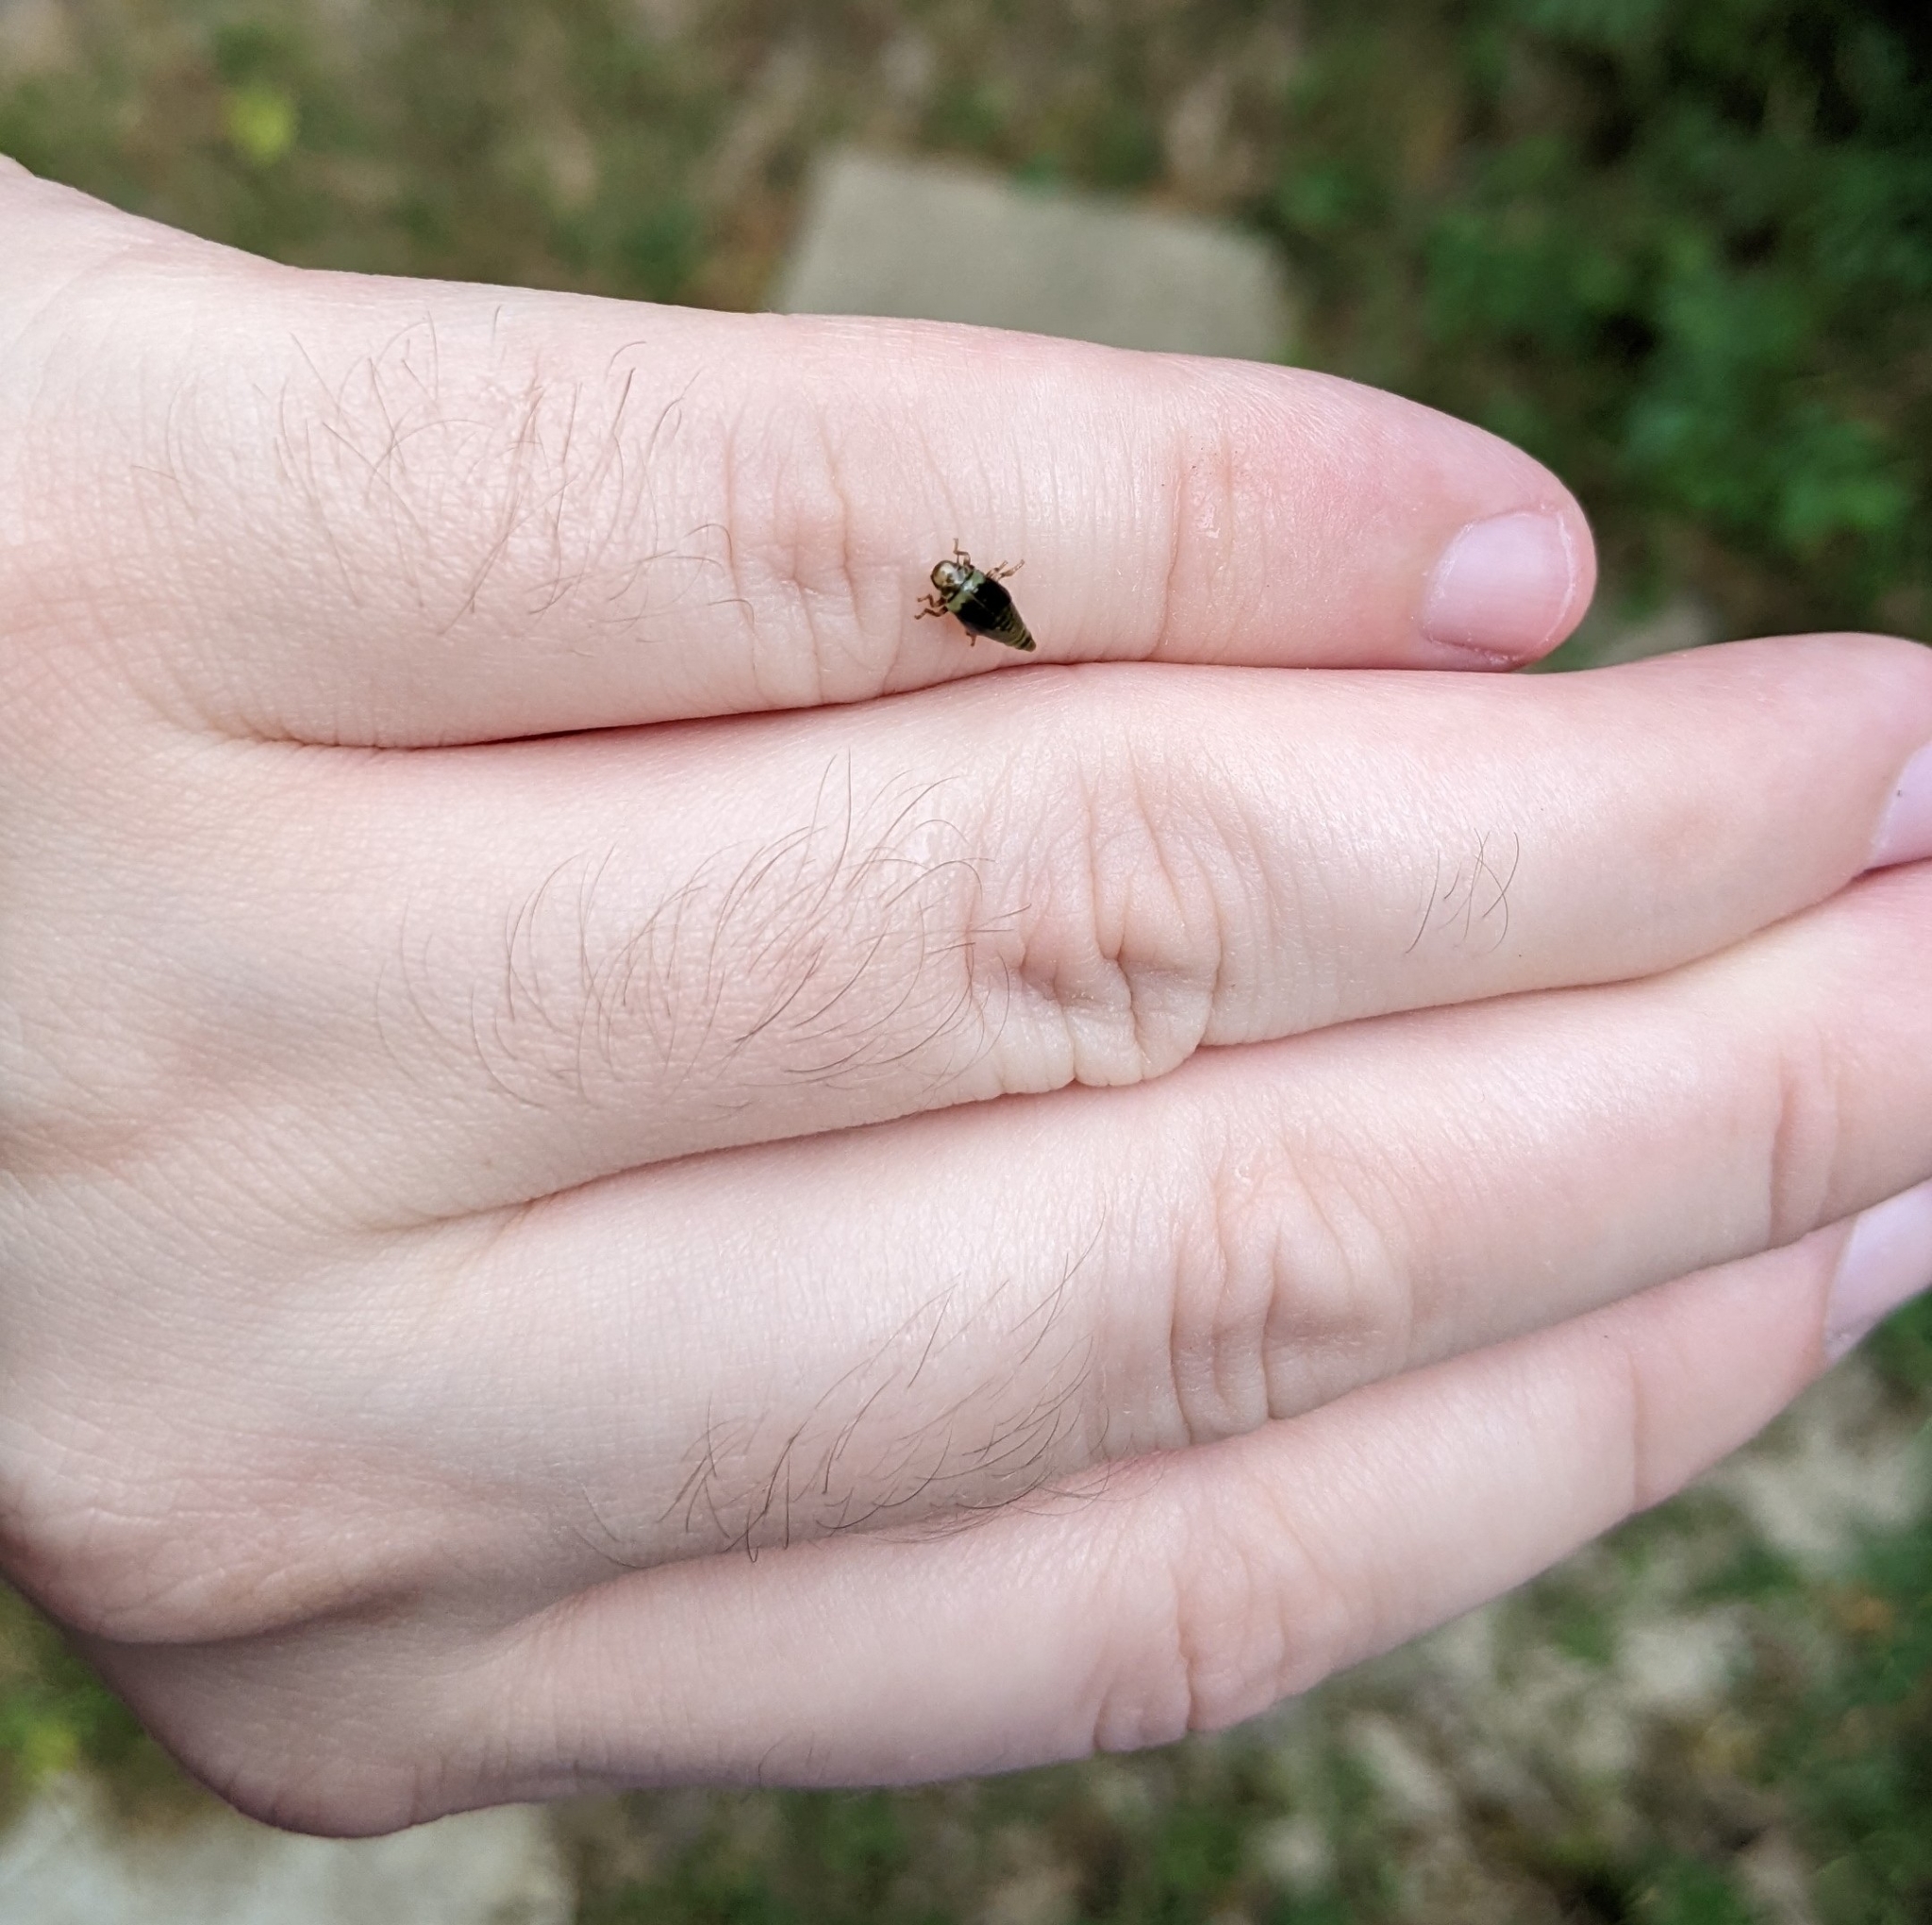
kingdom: Animalia
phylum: Arthropoda
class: Insecta
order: Hemiptera
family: Aphrophoridae
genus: Lepyronia
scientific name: Lepyronia quadrangularis
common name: Diamond-backed spittlebug
